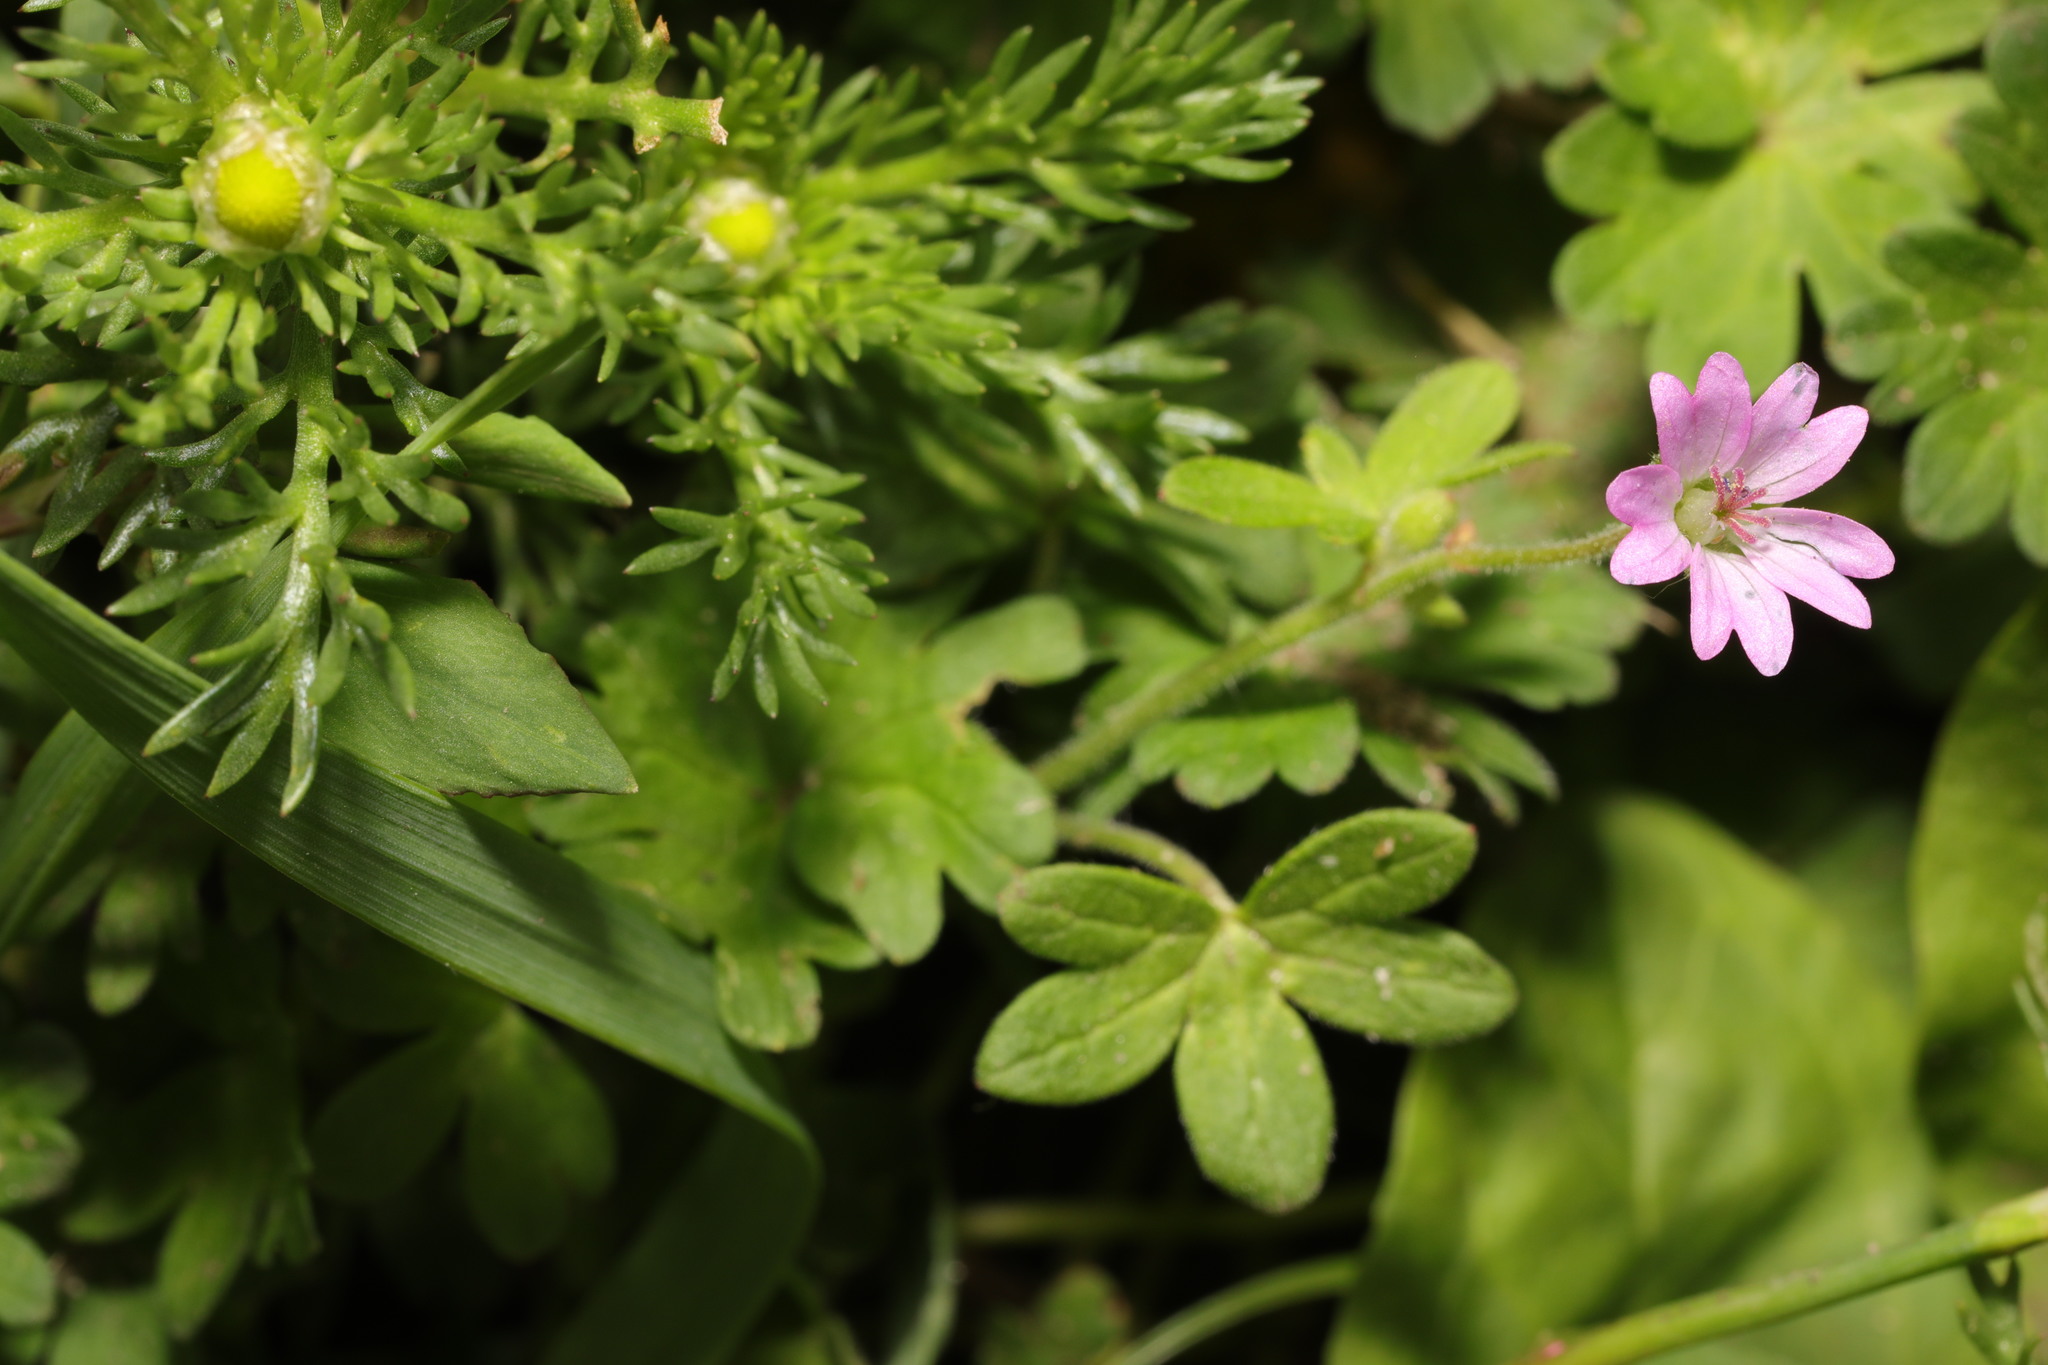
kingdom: Plantae
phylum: Tracheophyta
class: Magnoliopsida
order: Geraniales
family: Geraniaceae
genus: Geranium
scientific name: Geranium molle
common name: Dove's-foot crane's-bill
